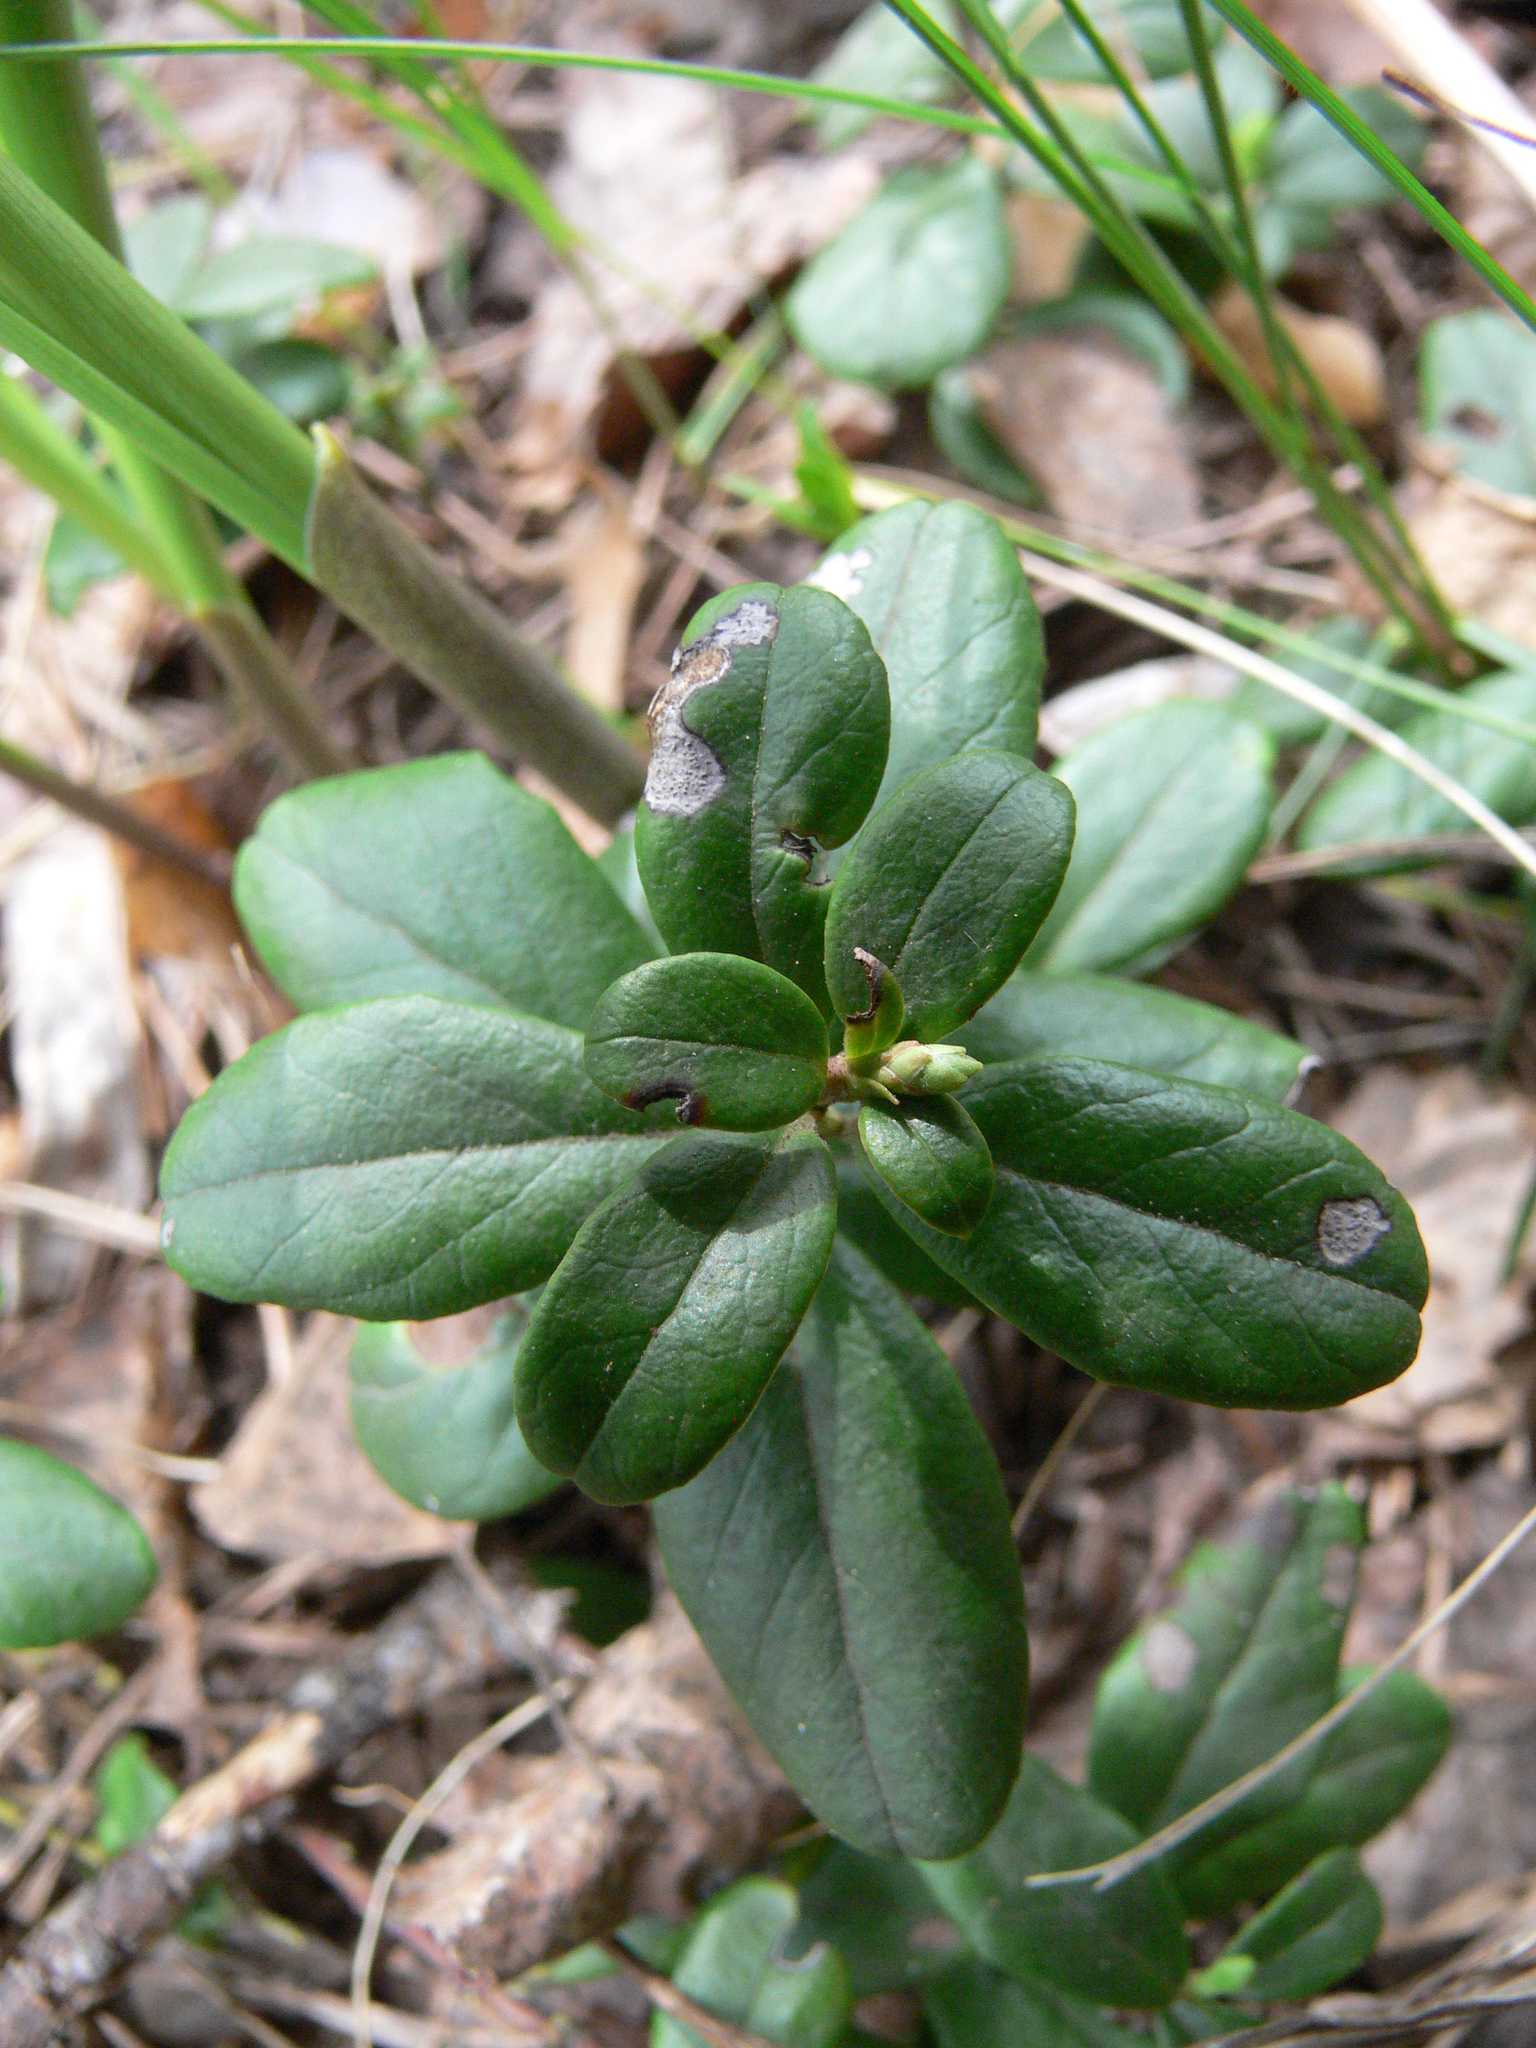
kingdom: Plantae
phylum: Tracheophyta
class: Magnoliopsida
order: Ericales
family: Ericaceae
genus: Vaccinium
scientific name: Vaccinium vitis-idaea
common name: Cowberry
